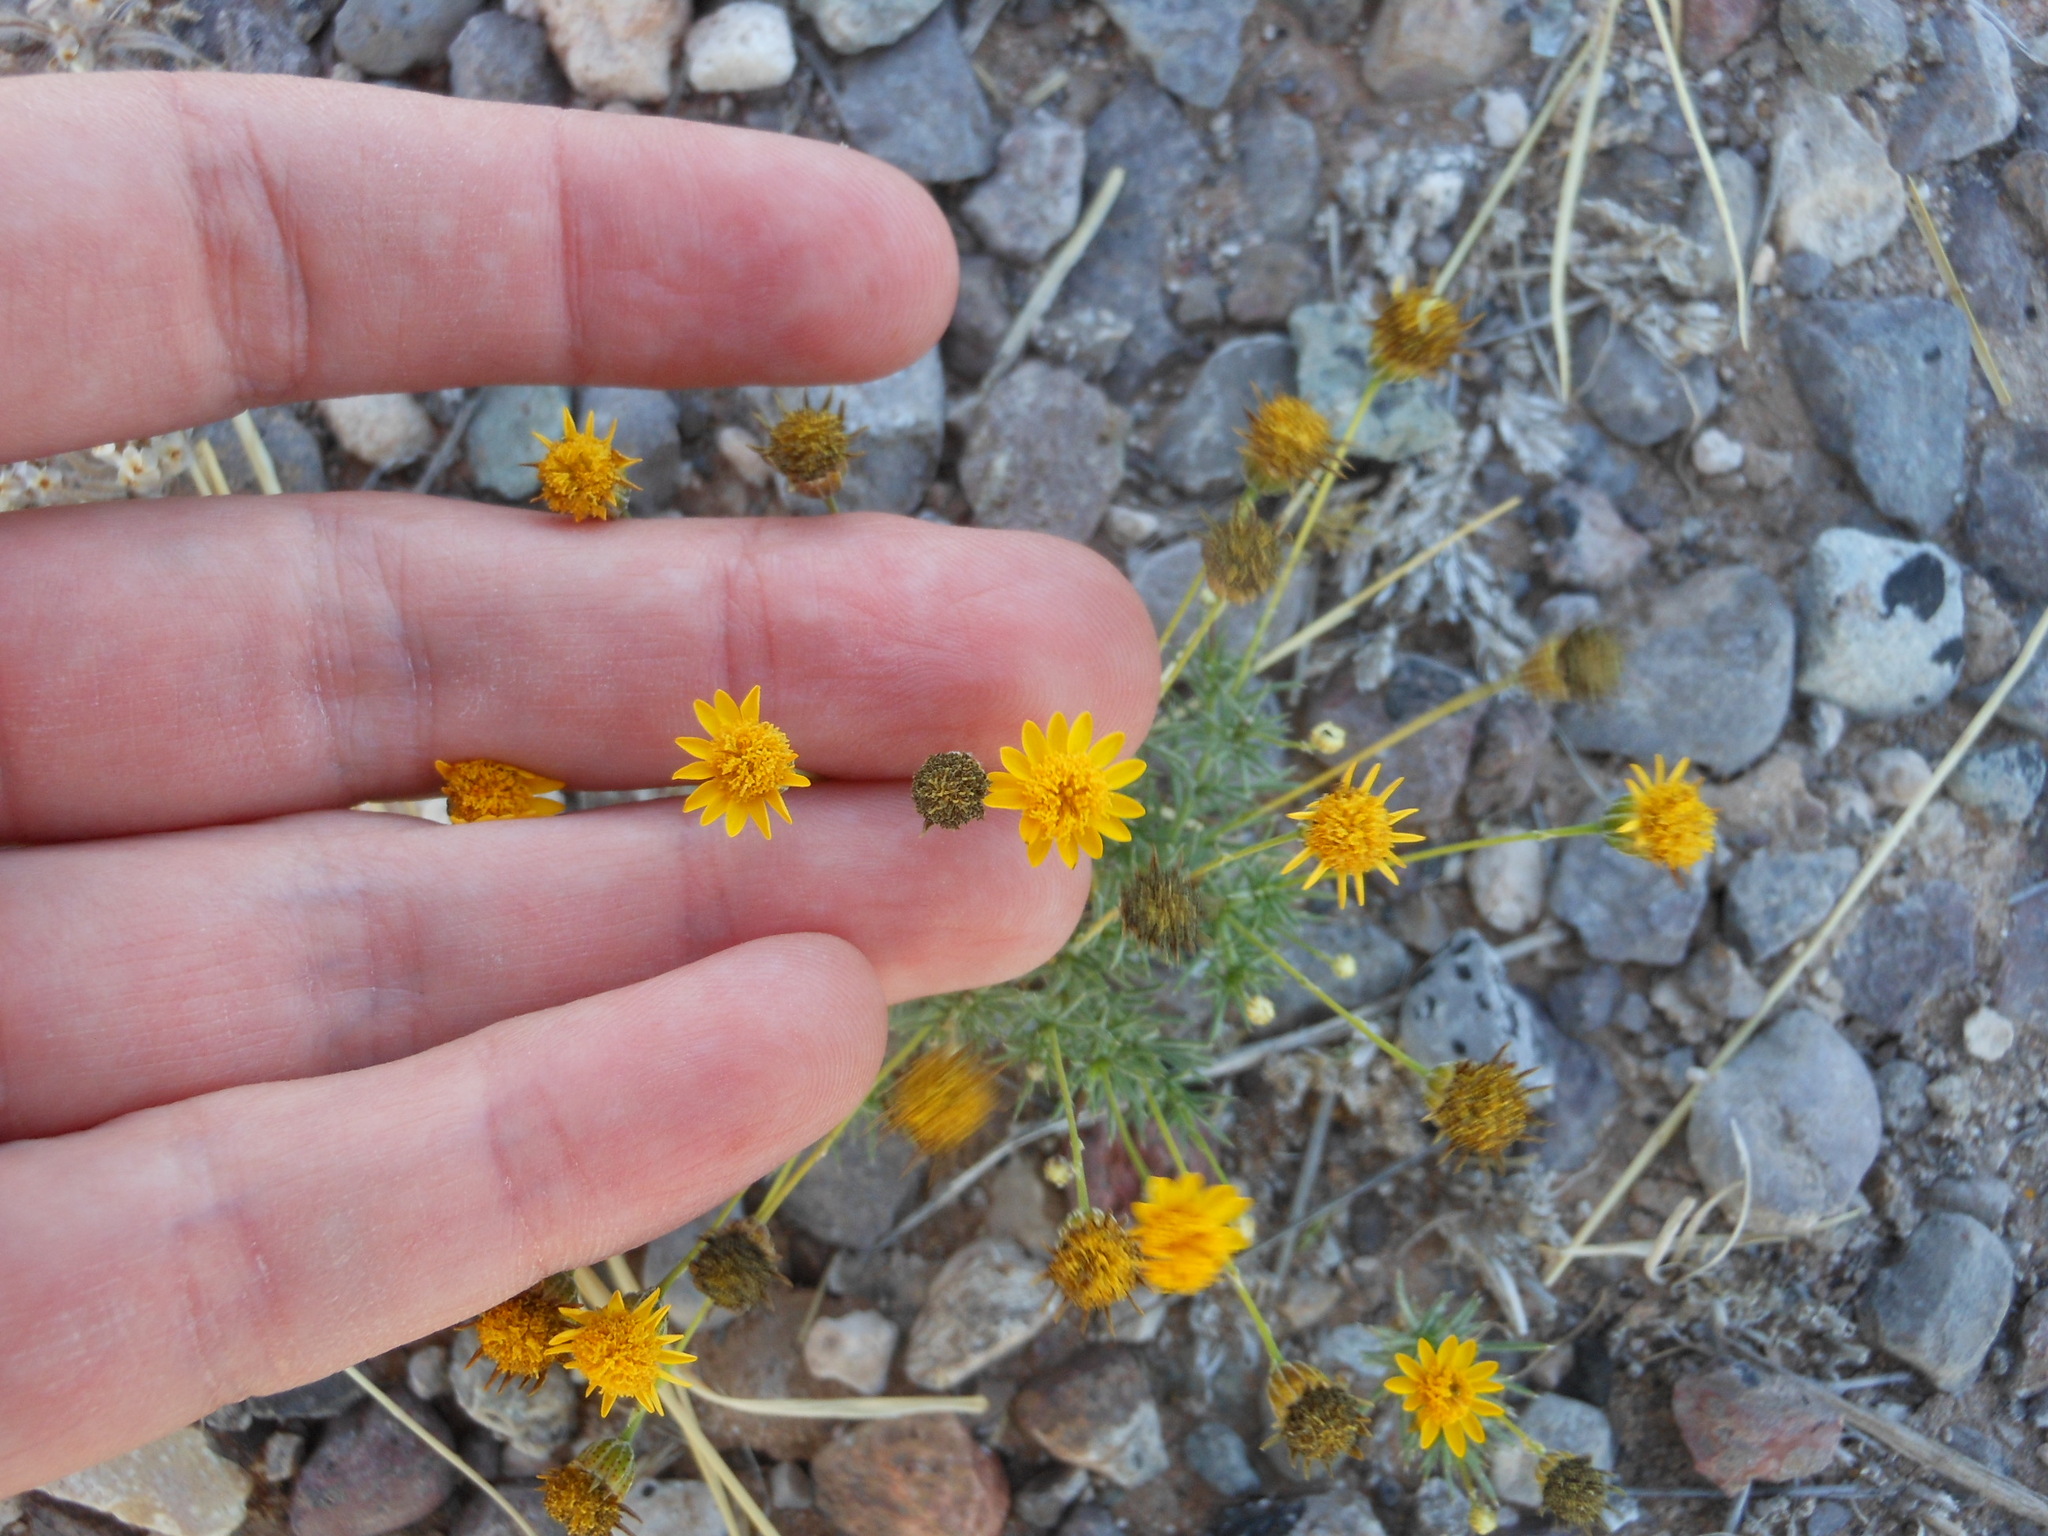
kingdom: Plantae
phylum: Tracheophyta
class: Magnoliopsida
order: Asterales
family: Asteraceae
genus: Thymophylla
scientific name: Thymophylla pentachaeta
